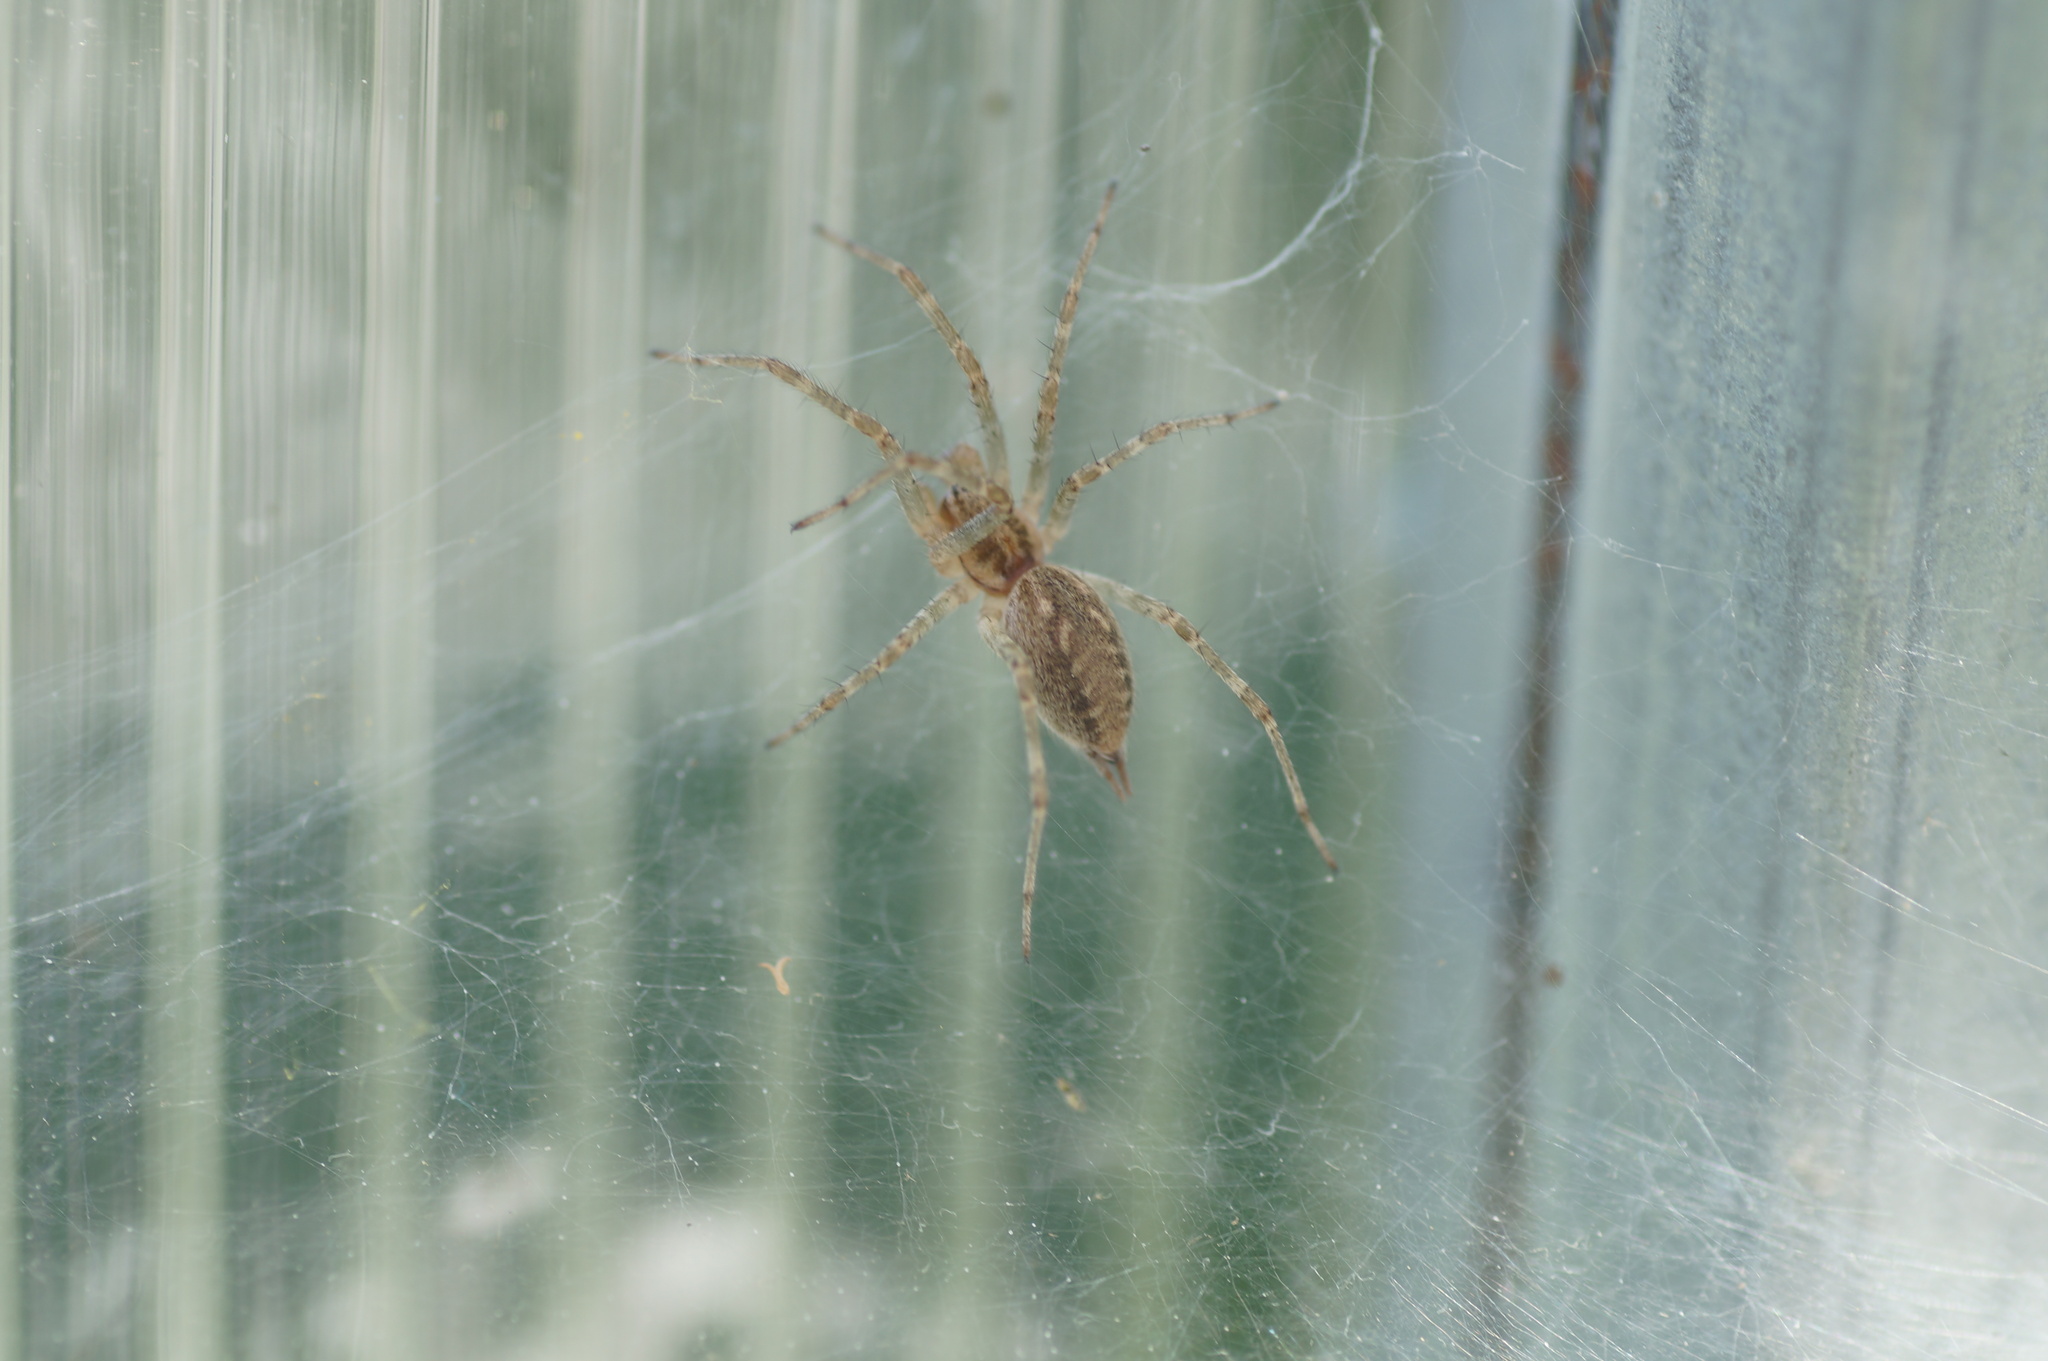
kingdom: Animalia
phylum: Arthropoda
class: Arachnida
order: Araneae
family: Agelenidae
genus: Allagelena
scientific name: Allagelena gracilens
